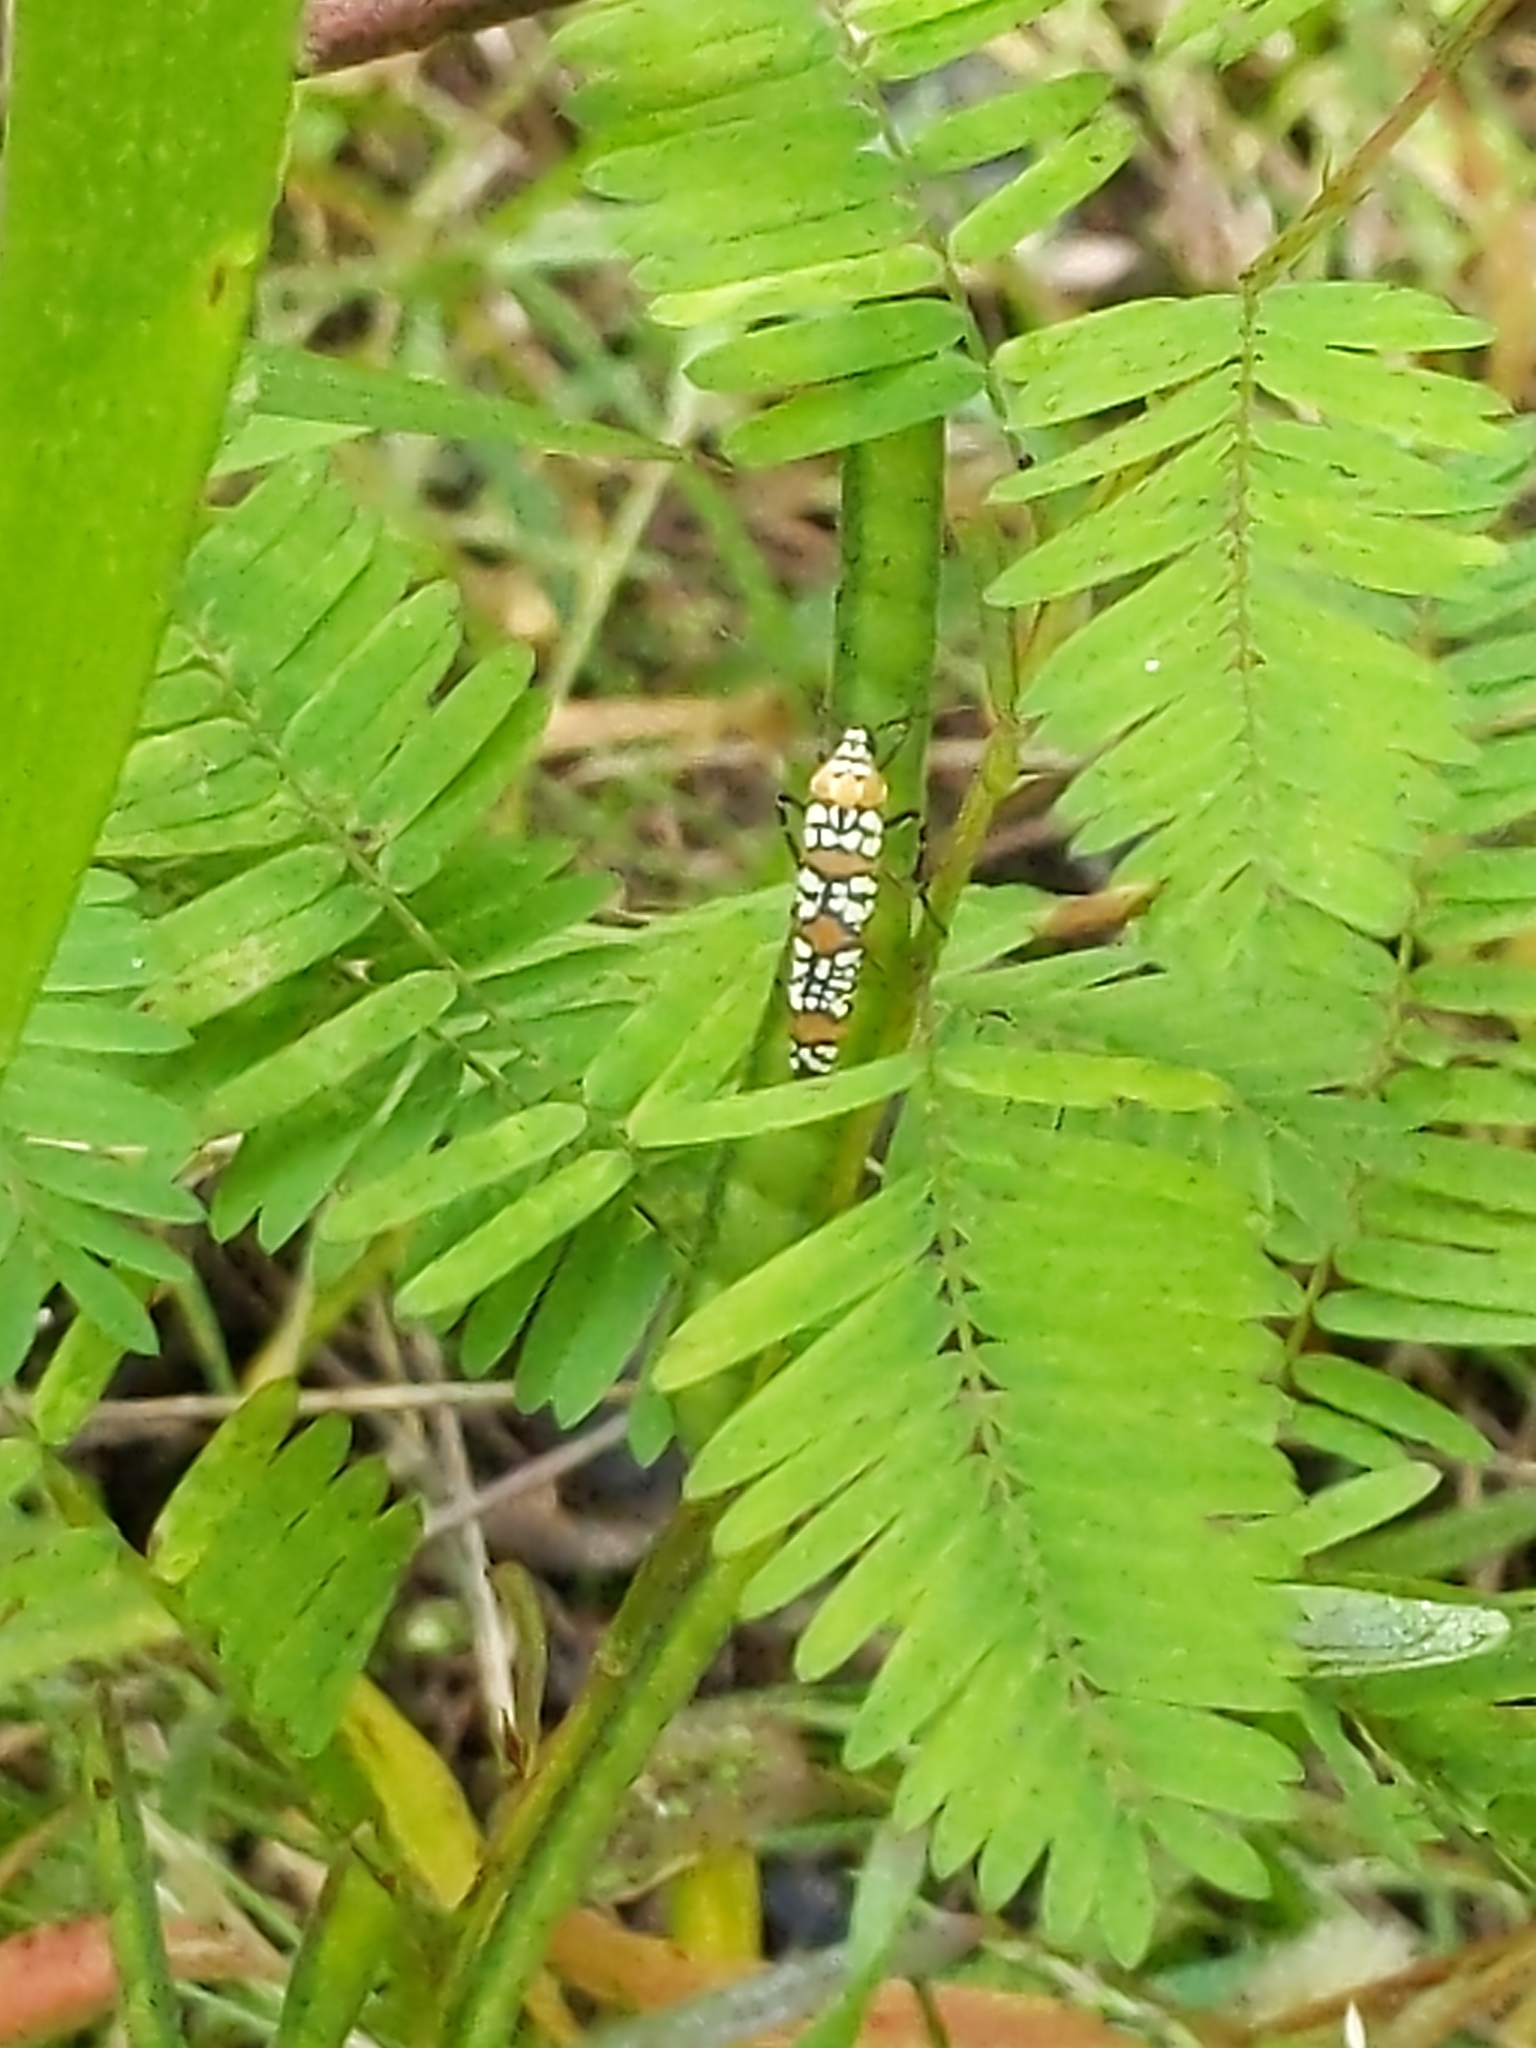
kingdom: Animalia
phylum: Arthropoda
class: Insecta
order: Lepidoptera
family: Attevidae
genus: Atteva
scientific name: Atteva punctella
